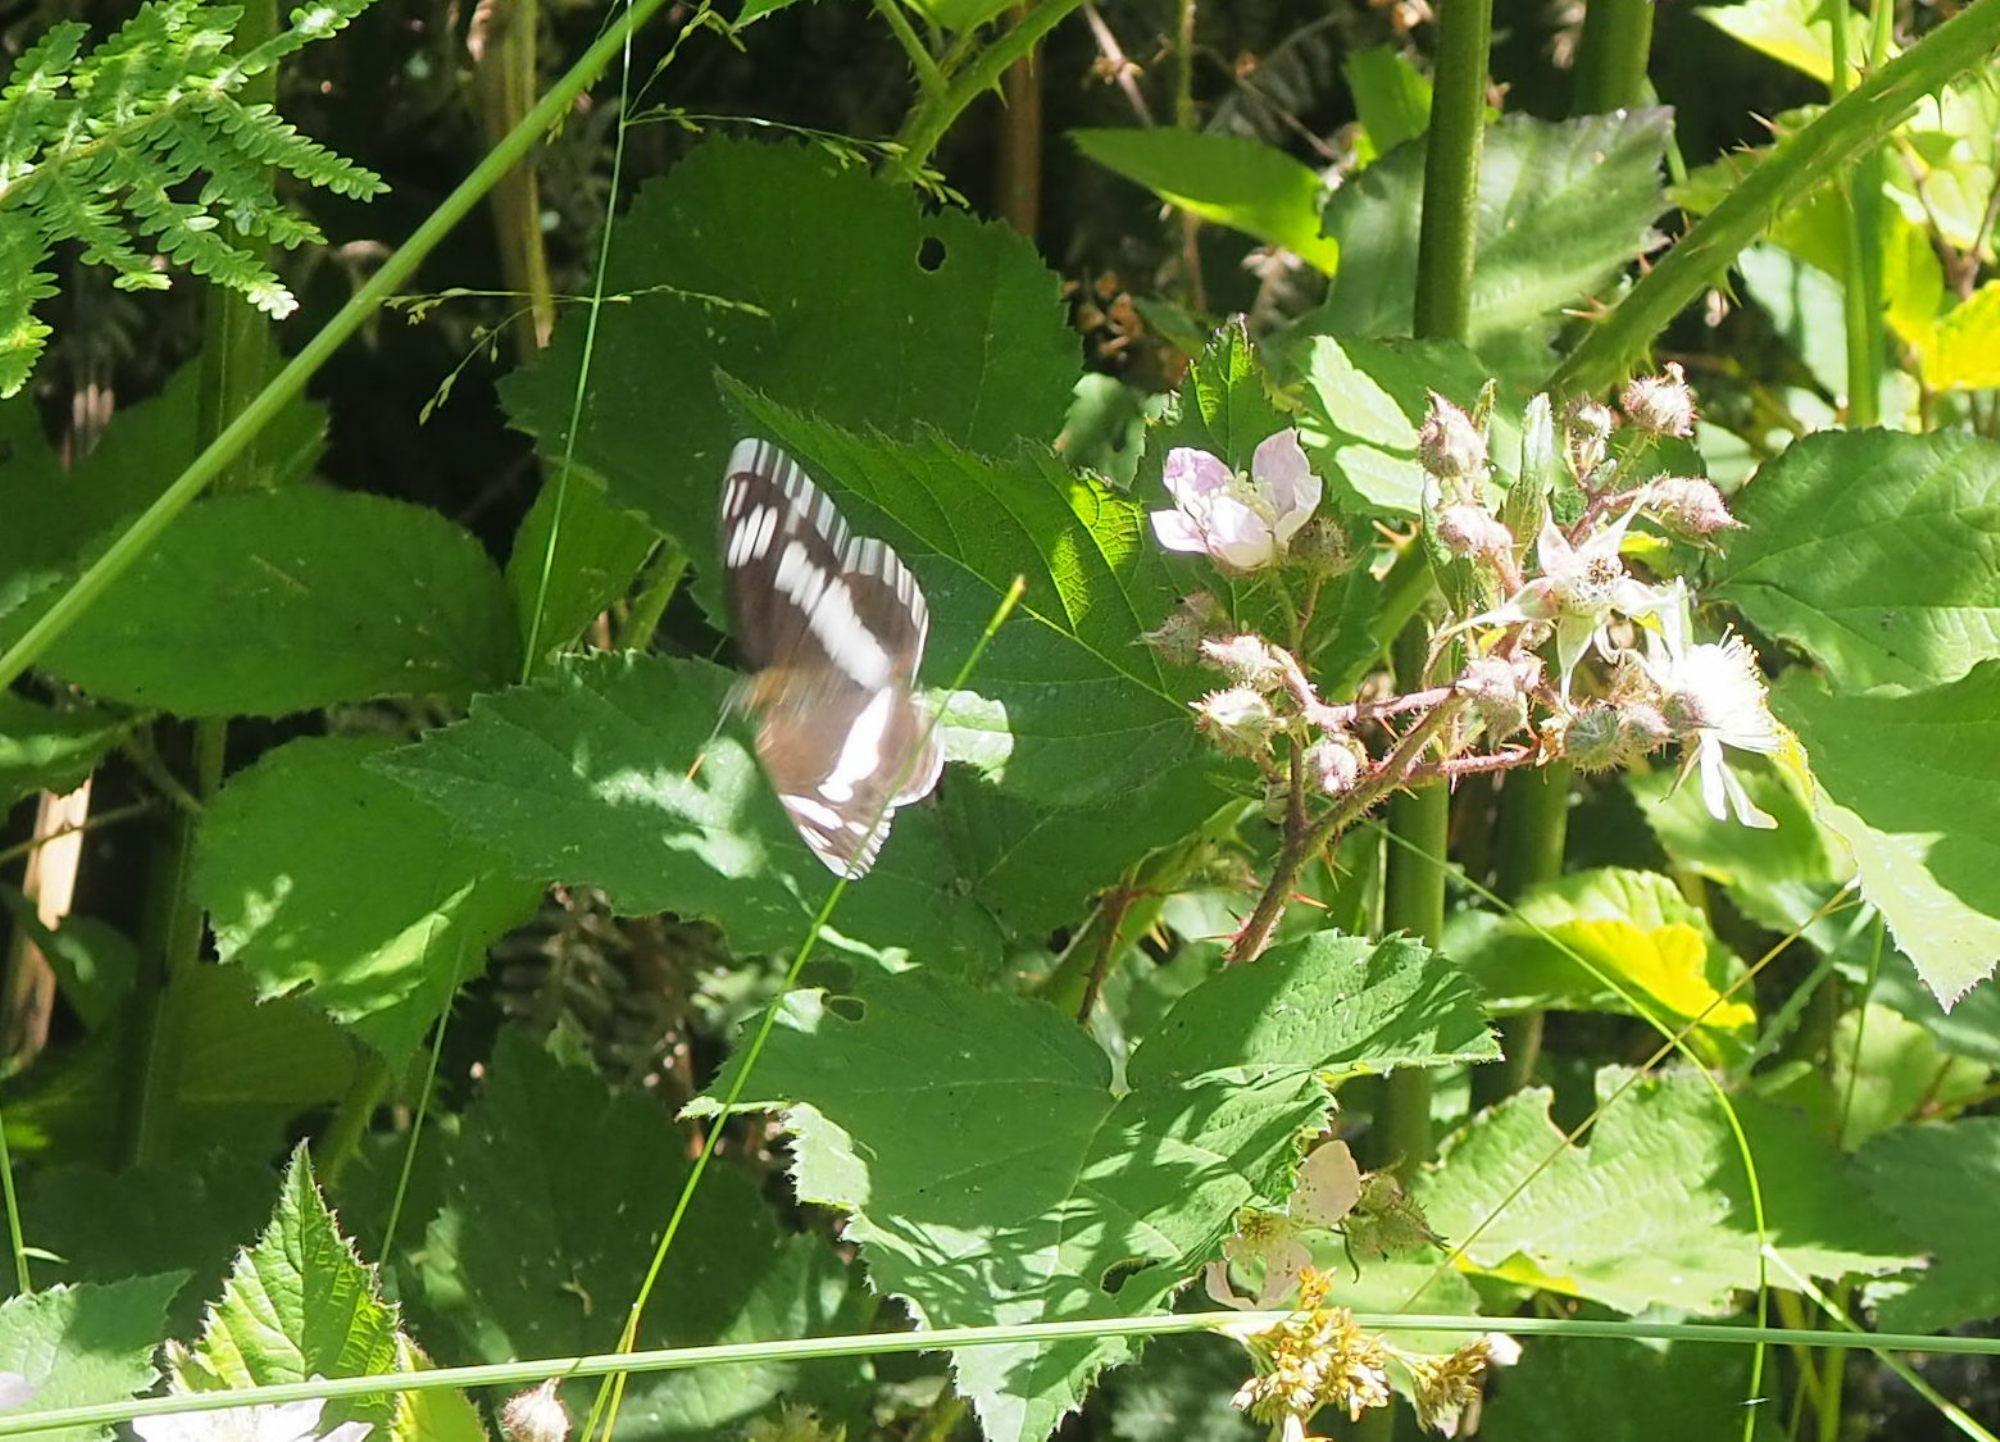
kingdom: Animalia
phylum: Arthropoda
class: Insecta
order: Lepidoptera
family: Nymphalidae
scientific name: Nymphalidae
